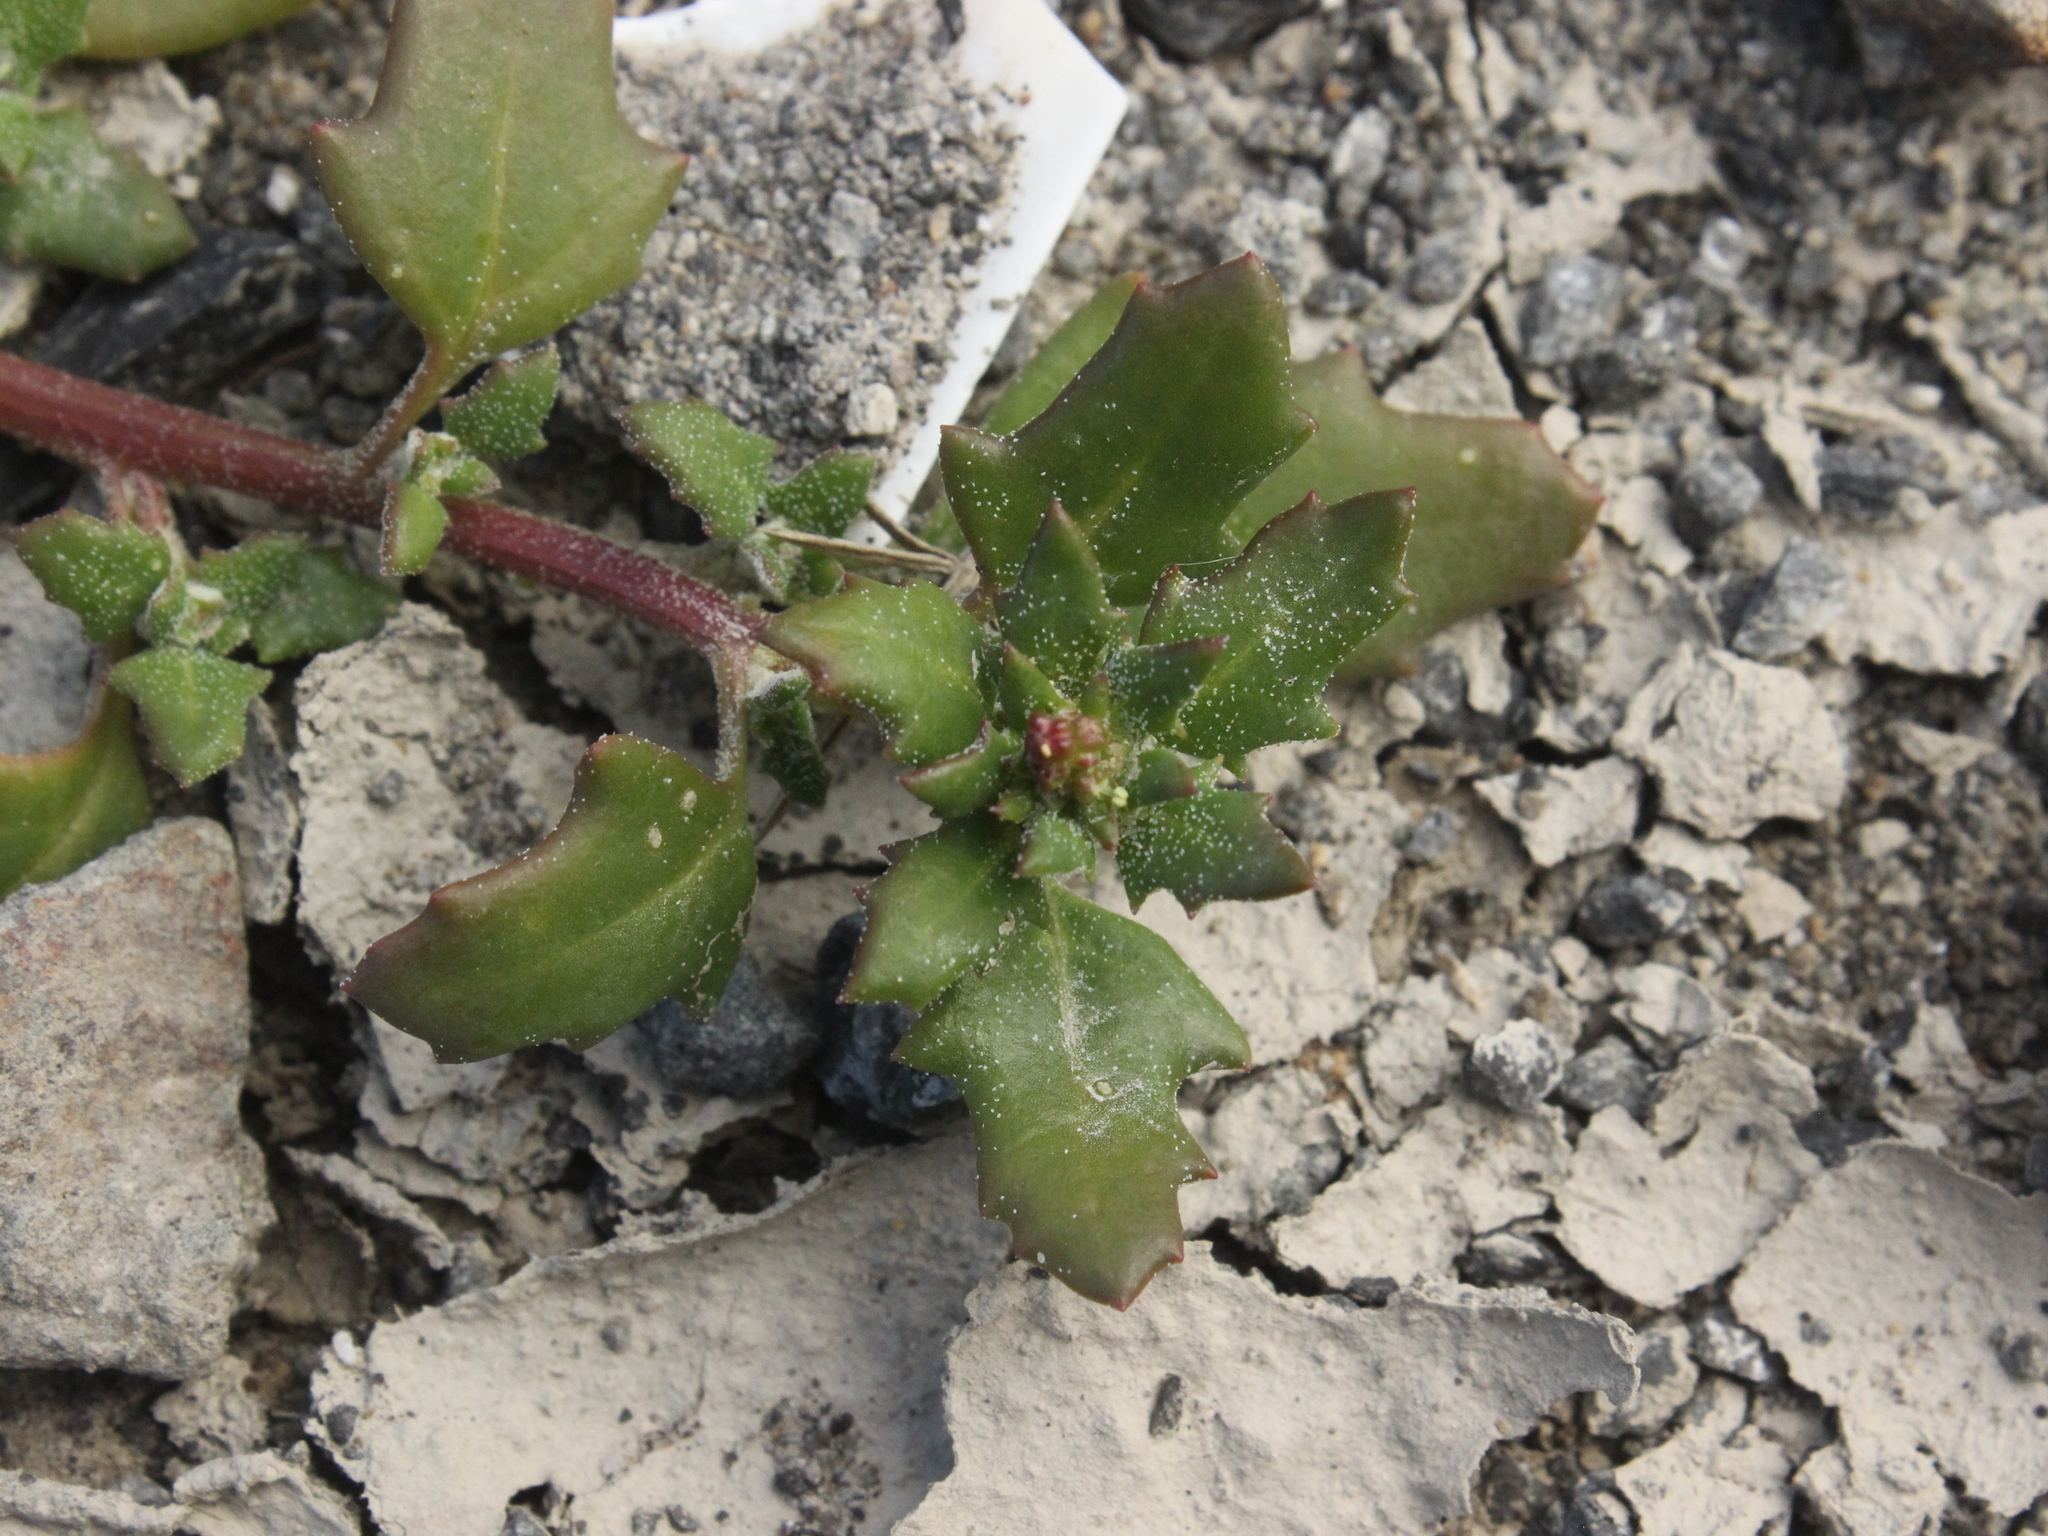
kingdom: Plantae
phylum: Tracheophyta
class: Magnoliopsida
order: Caryophyllales
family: Amaranthaceae
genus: Oxybasis
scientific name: Oxybasis ambigua
